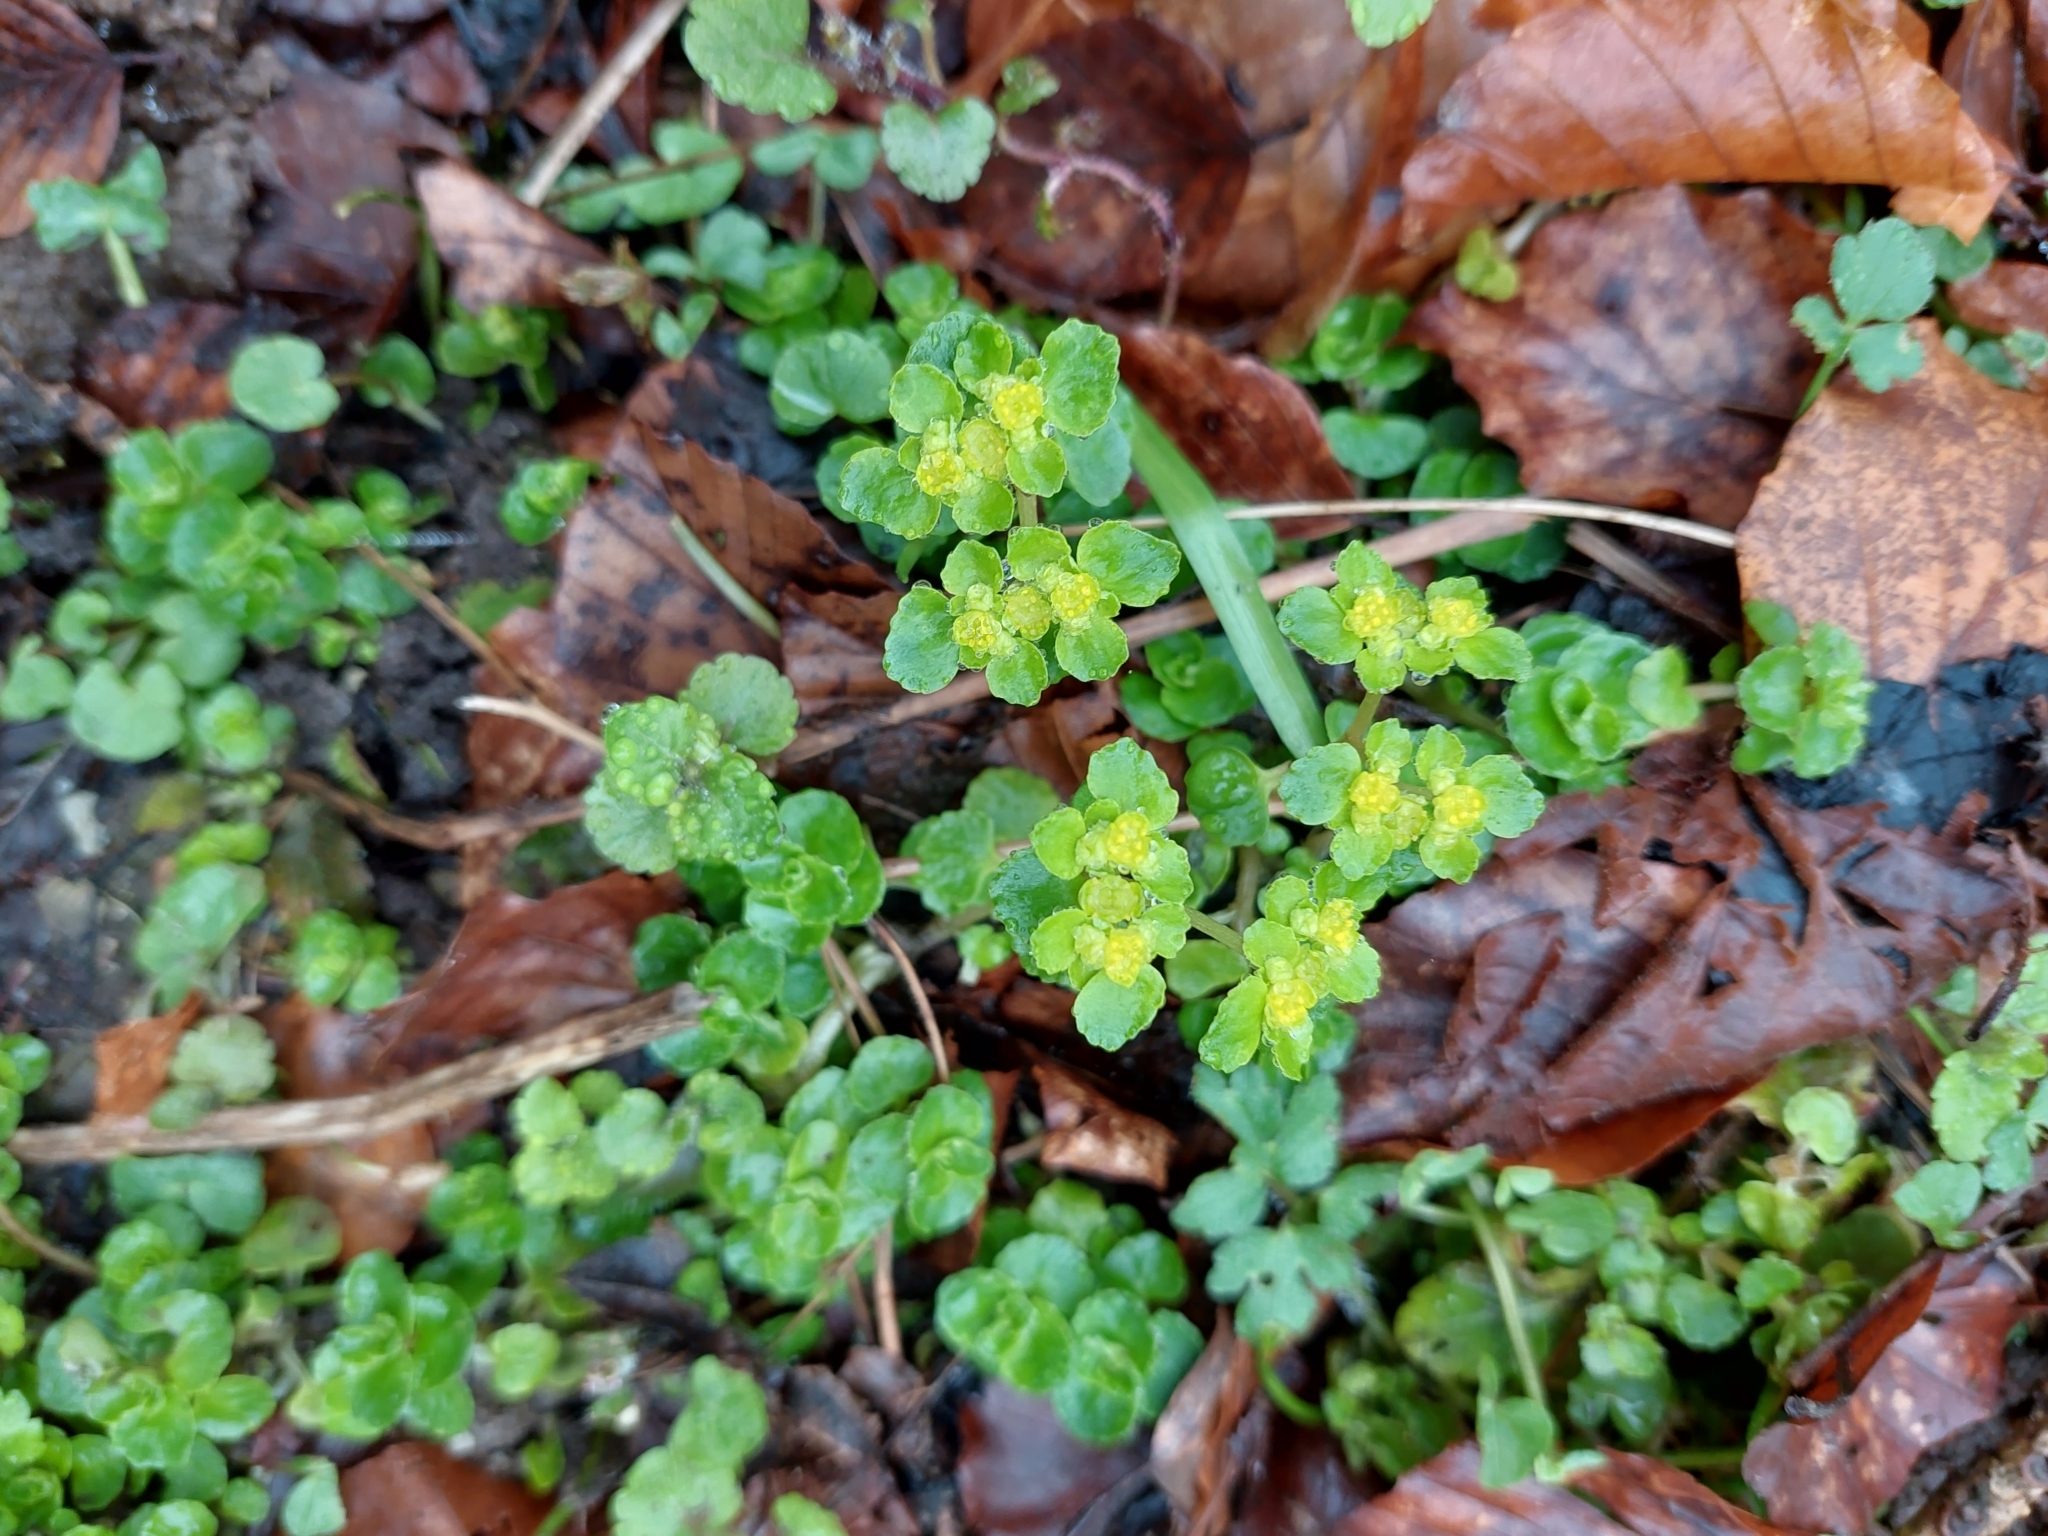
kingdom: Plantae
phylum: Tracheophyta
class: Magnoliopsida
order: Saxifragales
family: Saxifragaceae
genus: Chrysosplenium
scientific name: Chrysosplenium oppositifolium
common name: Opposite-leaved golden-saxifrage
